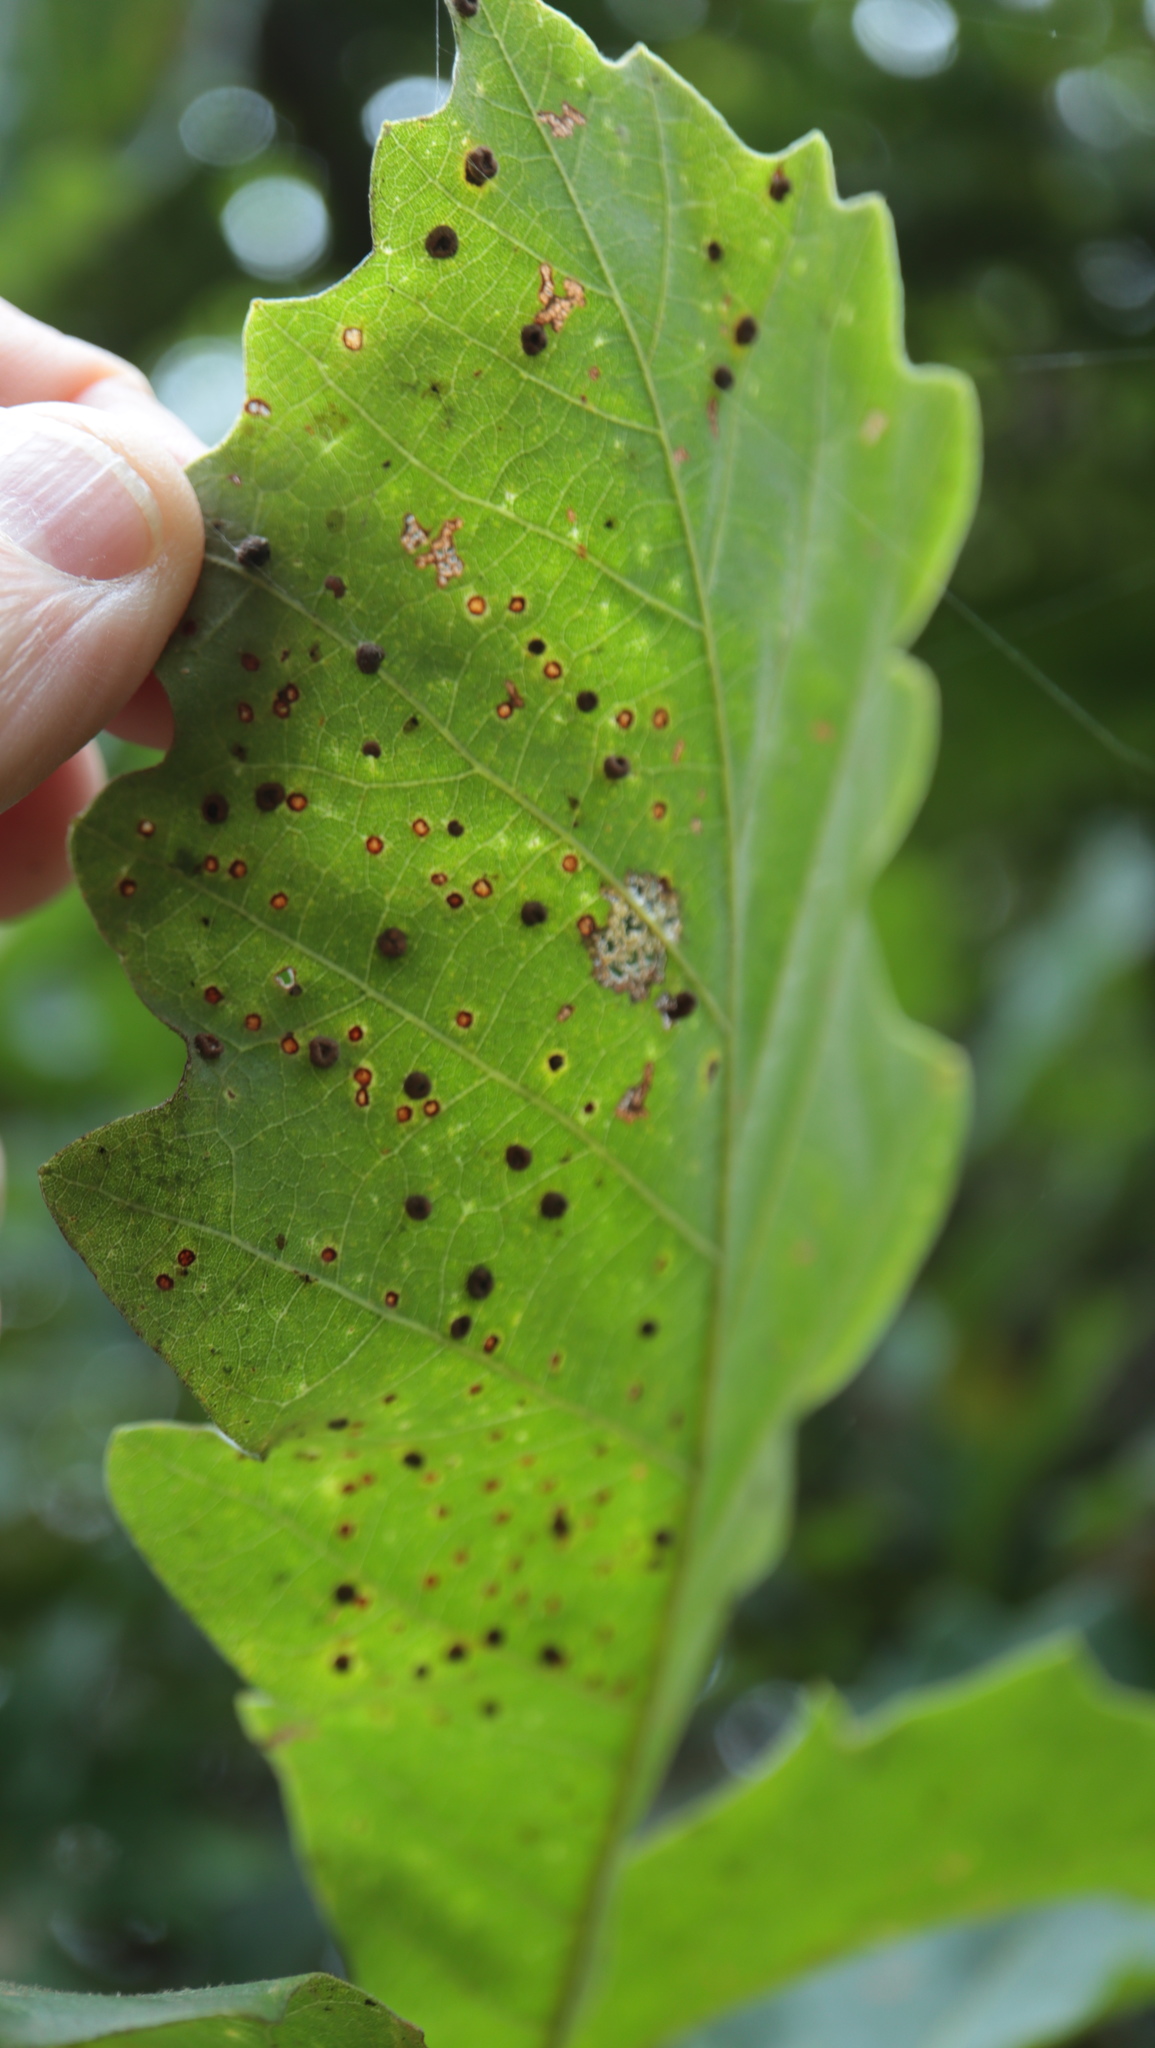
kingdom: Animalia
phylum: Arthropoda
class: Insecta
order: Hymenoptera
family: Cynipidae
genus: Neuroterus
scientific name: Neuroterus saltarius
